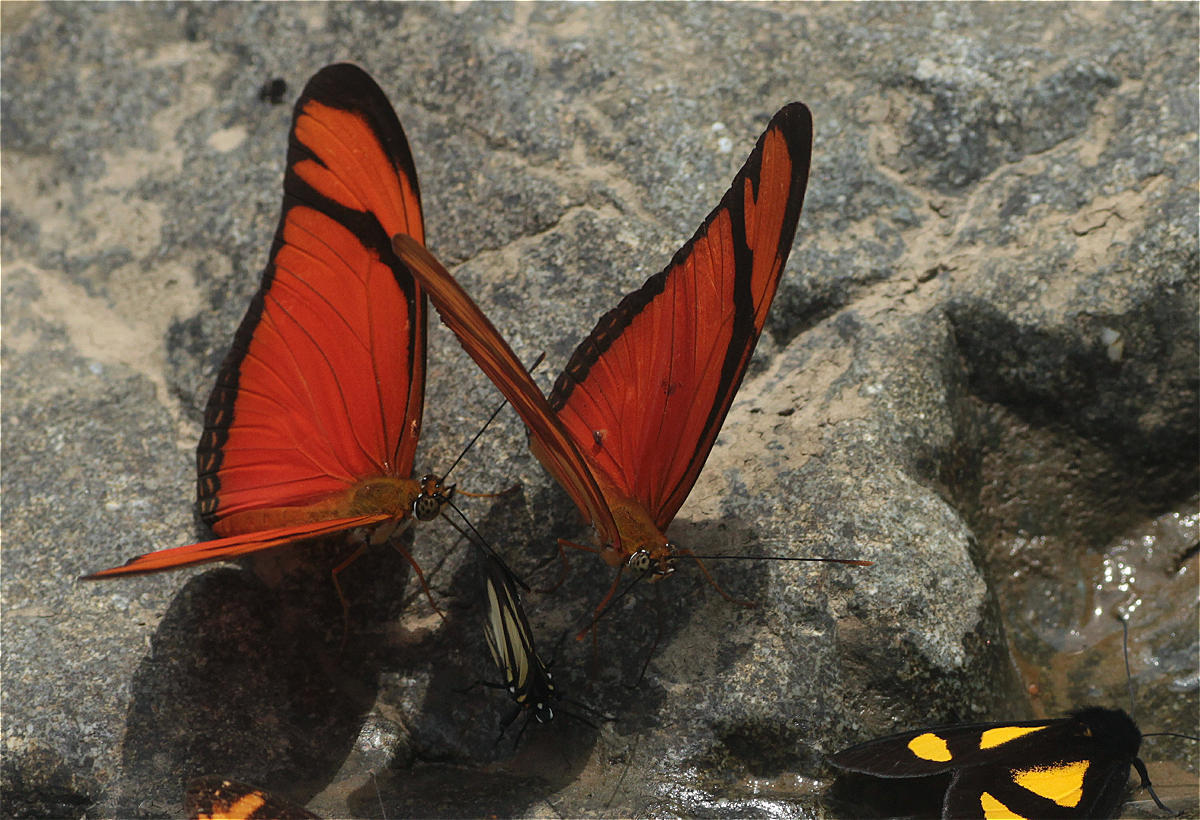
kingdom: Animalia
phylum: Arthropoda
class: Insecta
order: Lepidoptera
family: Nymphalidae
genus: Dryas
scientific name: Dryas iulia
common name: Flambeau
